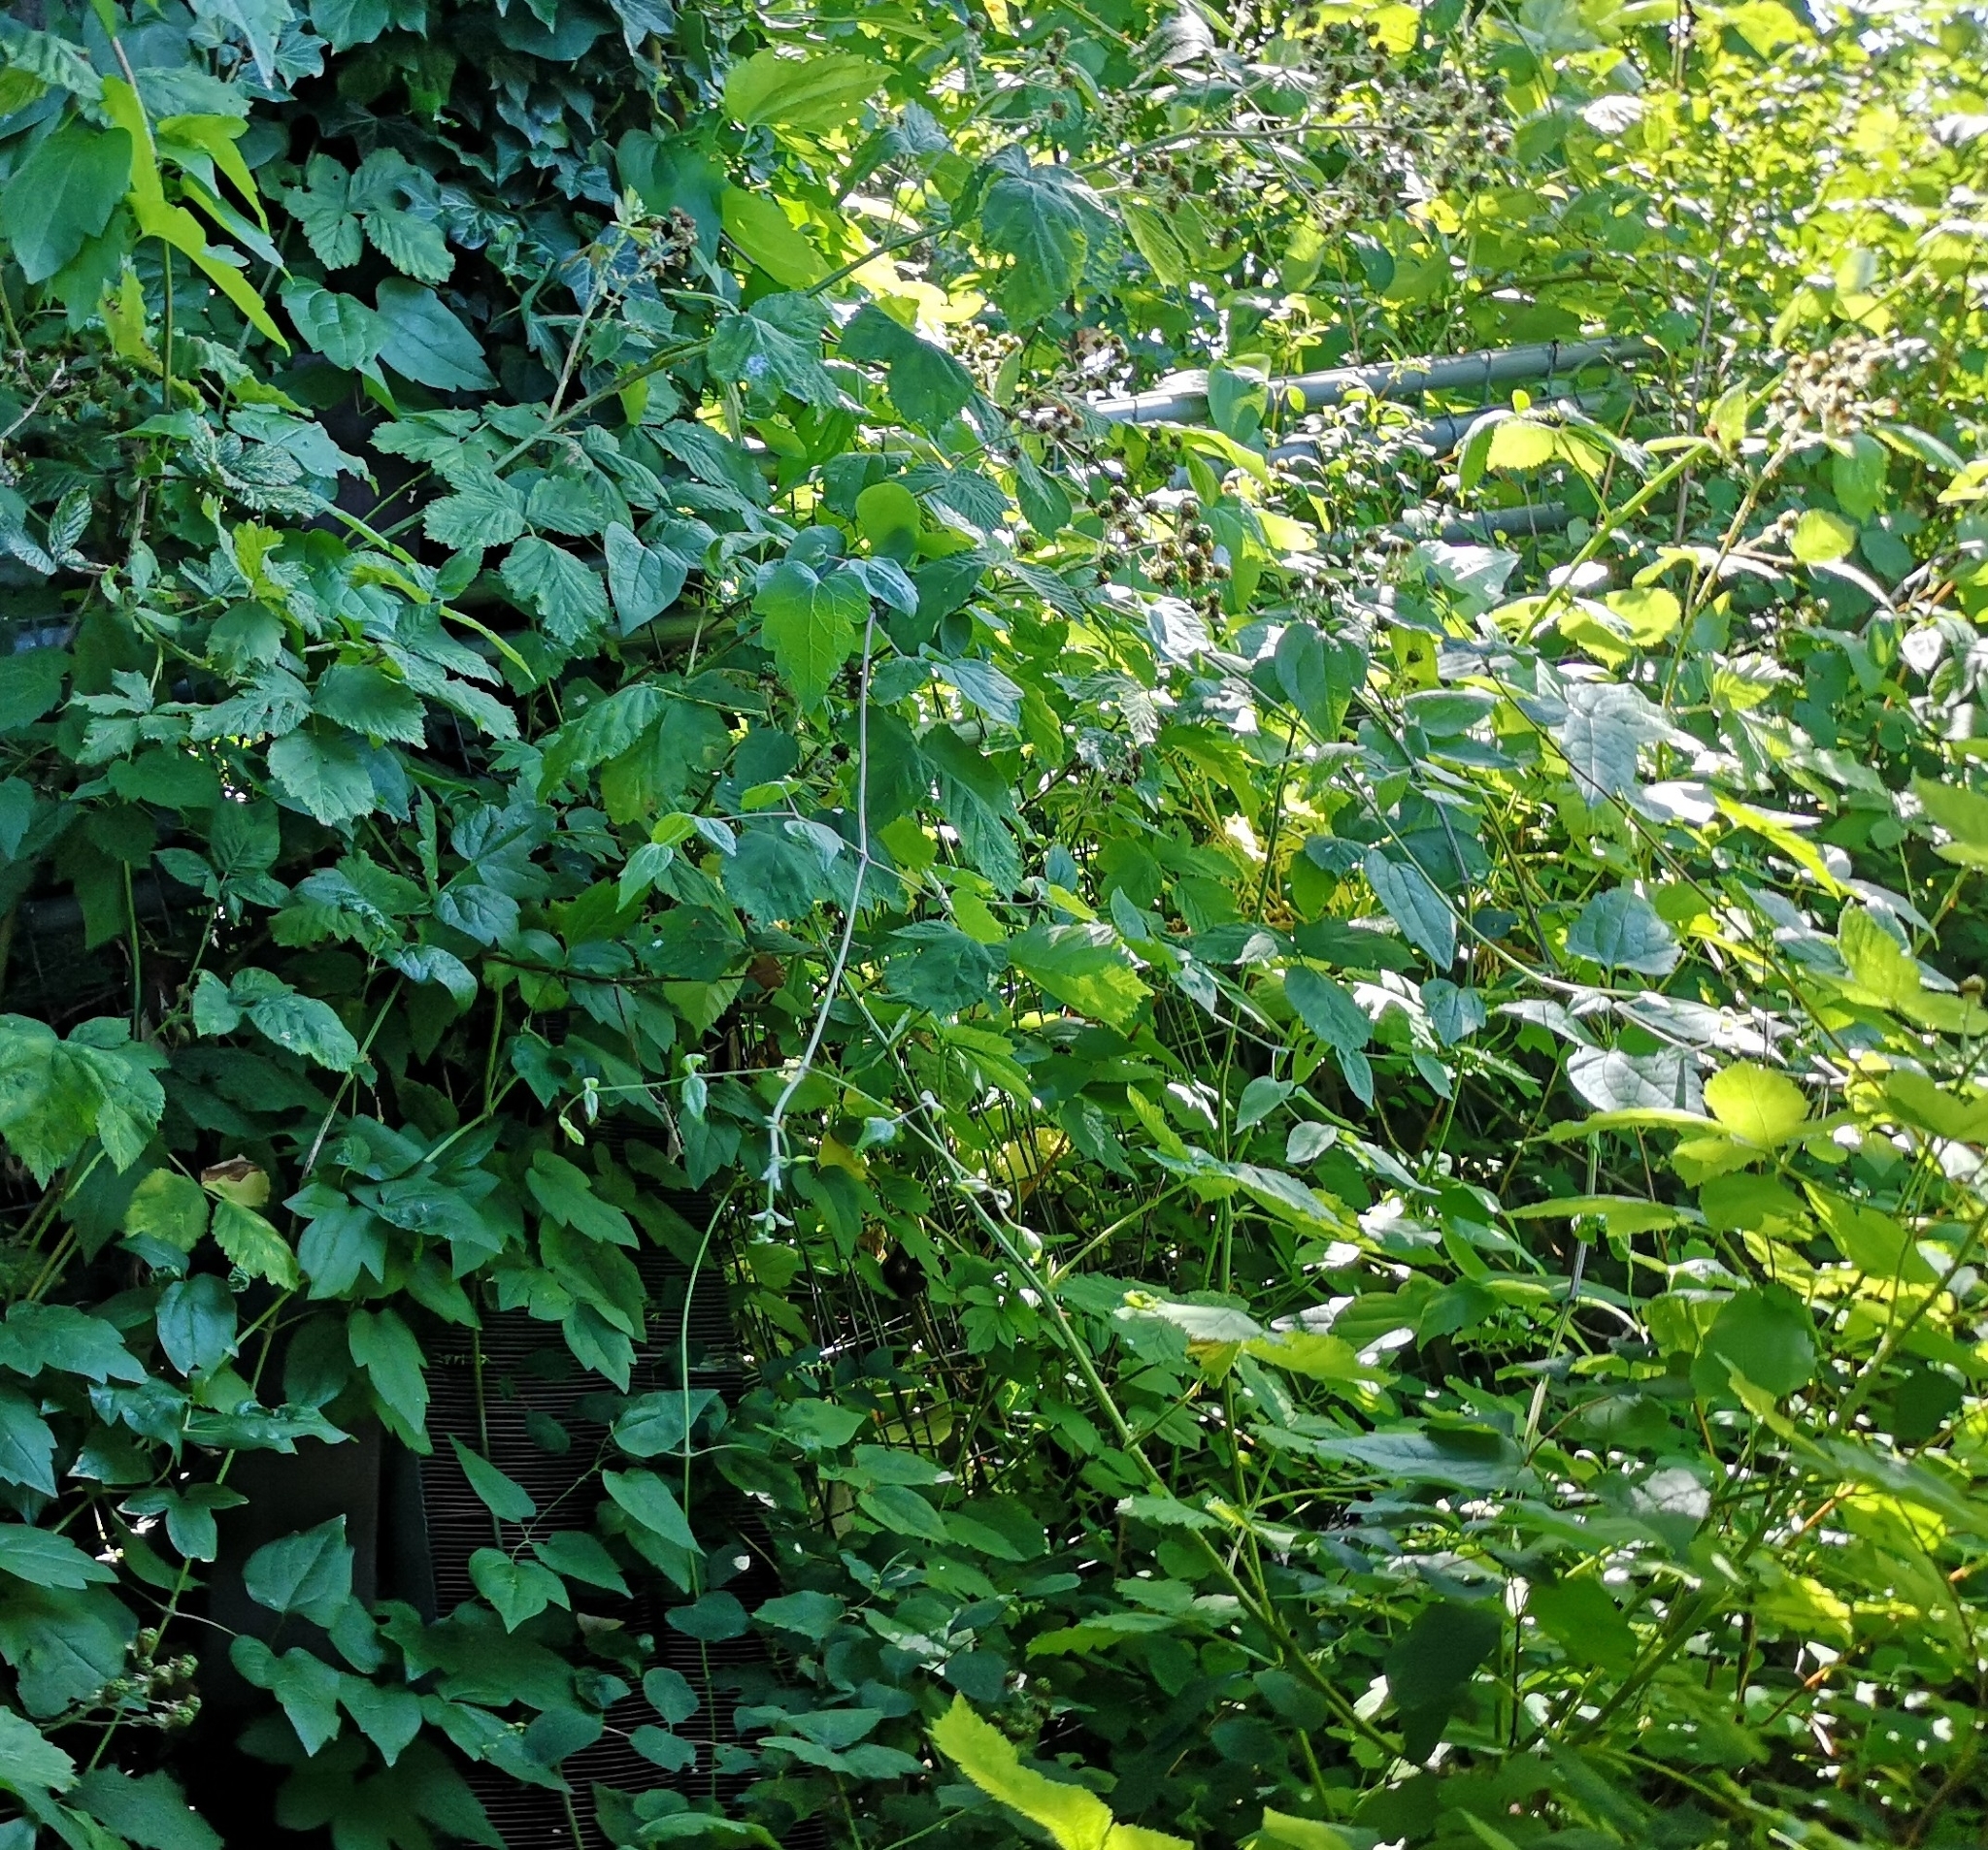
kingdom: Plantae
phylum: Tracheophyta
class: Magnoliopsida
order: Ranunculales
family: Ranunculaceae
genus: Clematis
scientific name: Clematis vitalba
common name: Evergreen clematis
